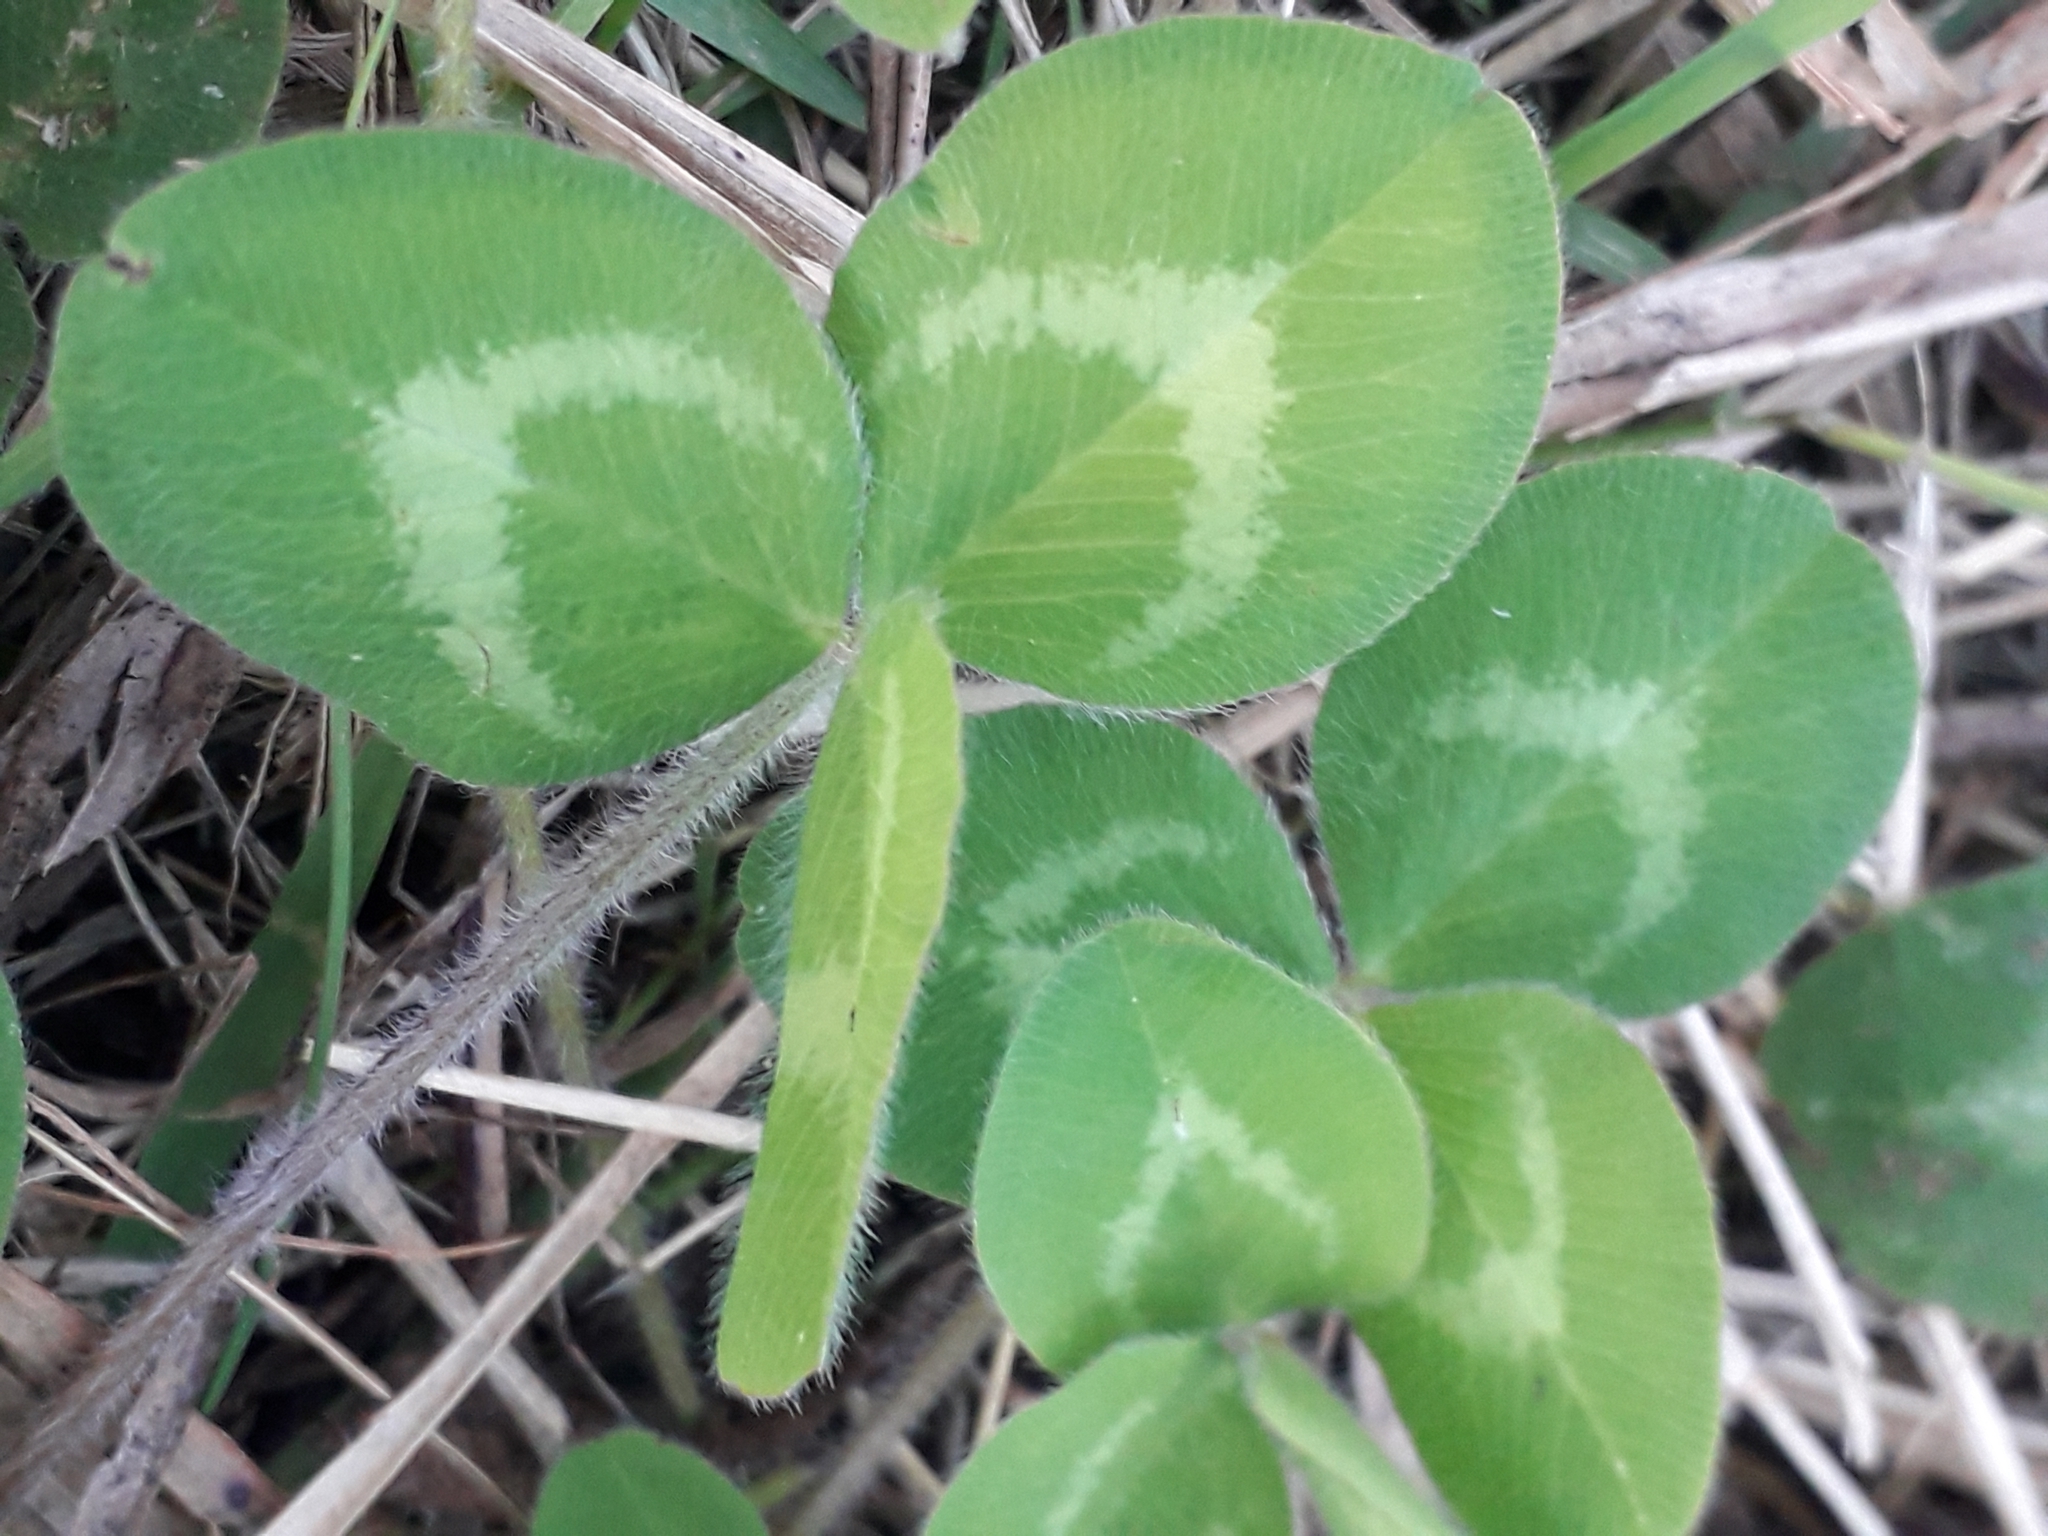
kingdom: Plantae
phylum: Tracheophyta
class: Magnoliopsida
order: Fabales
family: Fabaceae
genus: Trifolium
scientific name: Trifolium pratense
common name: Red clover
